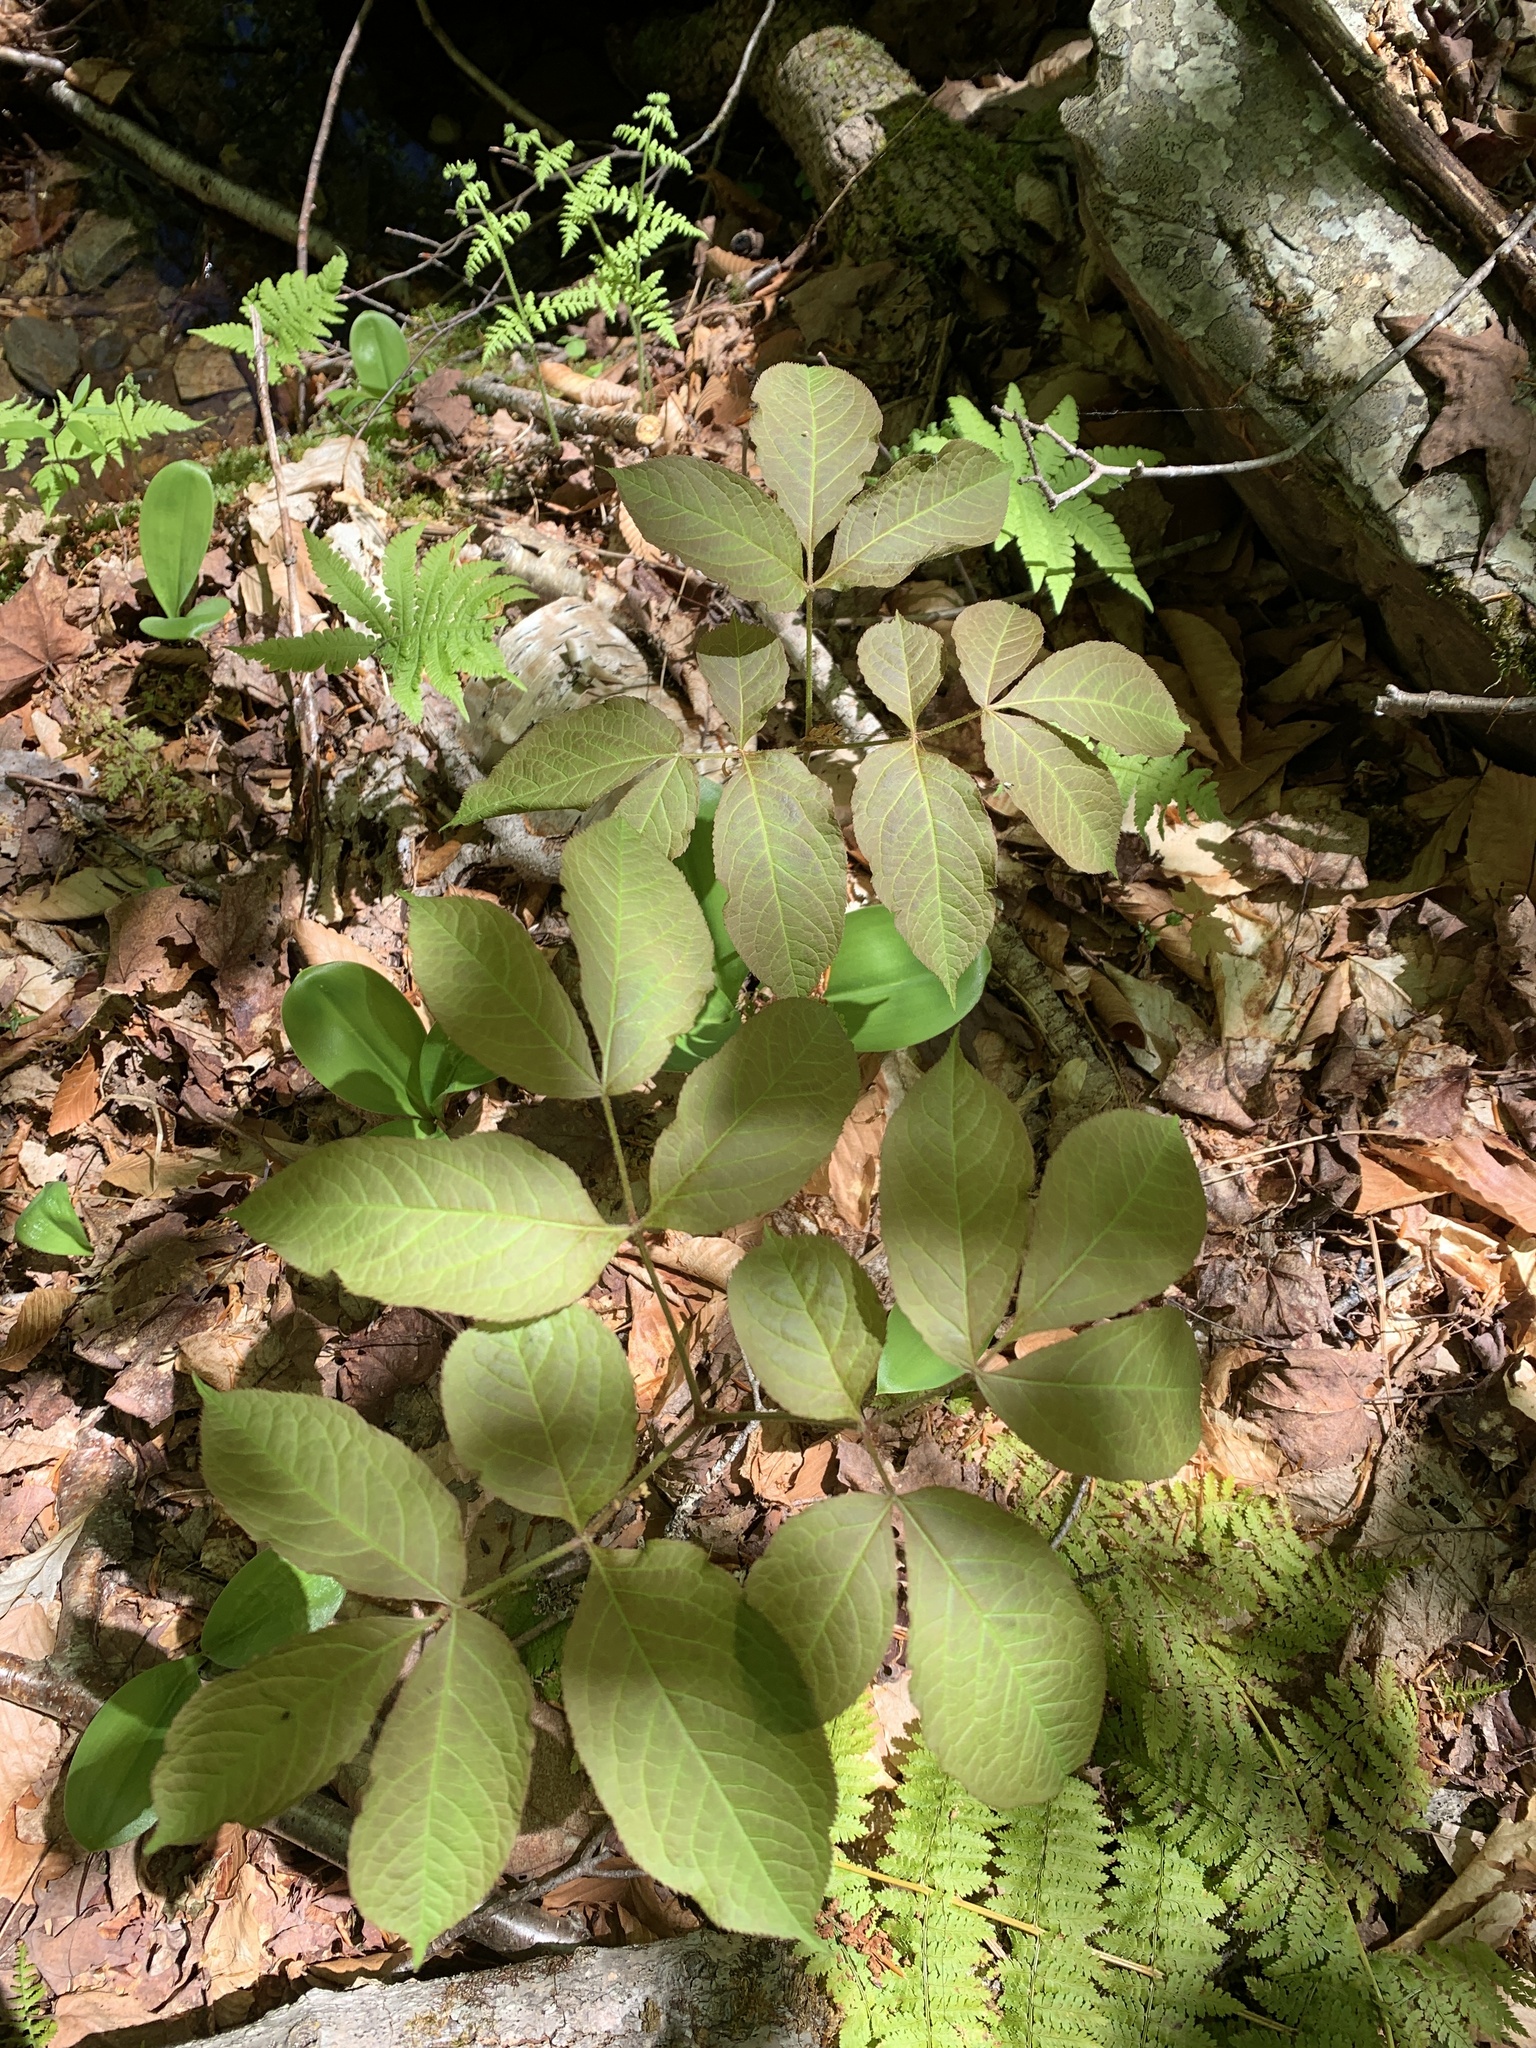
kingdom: Plantae
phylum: Tracheophyta
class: Magnoliopsida
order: Apiales
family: Araliaceae
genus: Aralia
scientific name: Aralia nudicaulis
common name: Wild sarsaparilla
